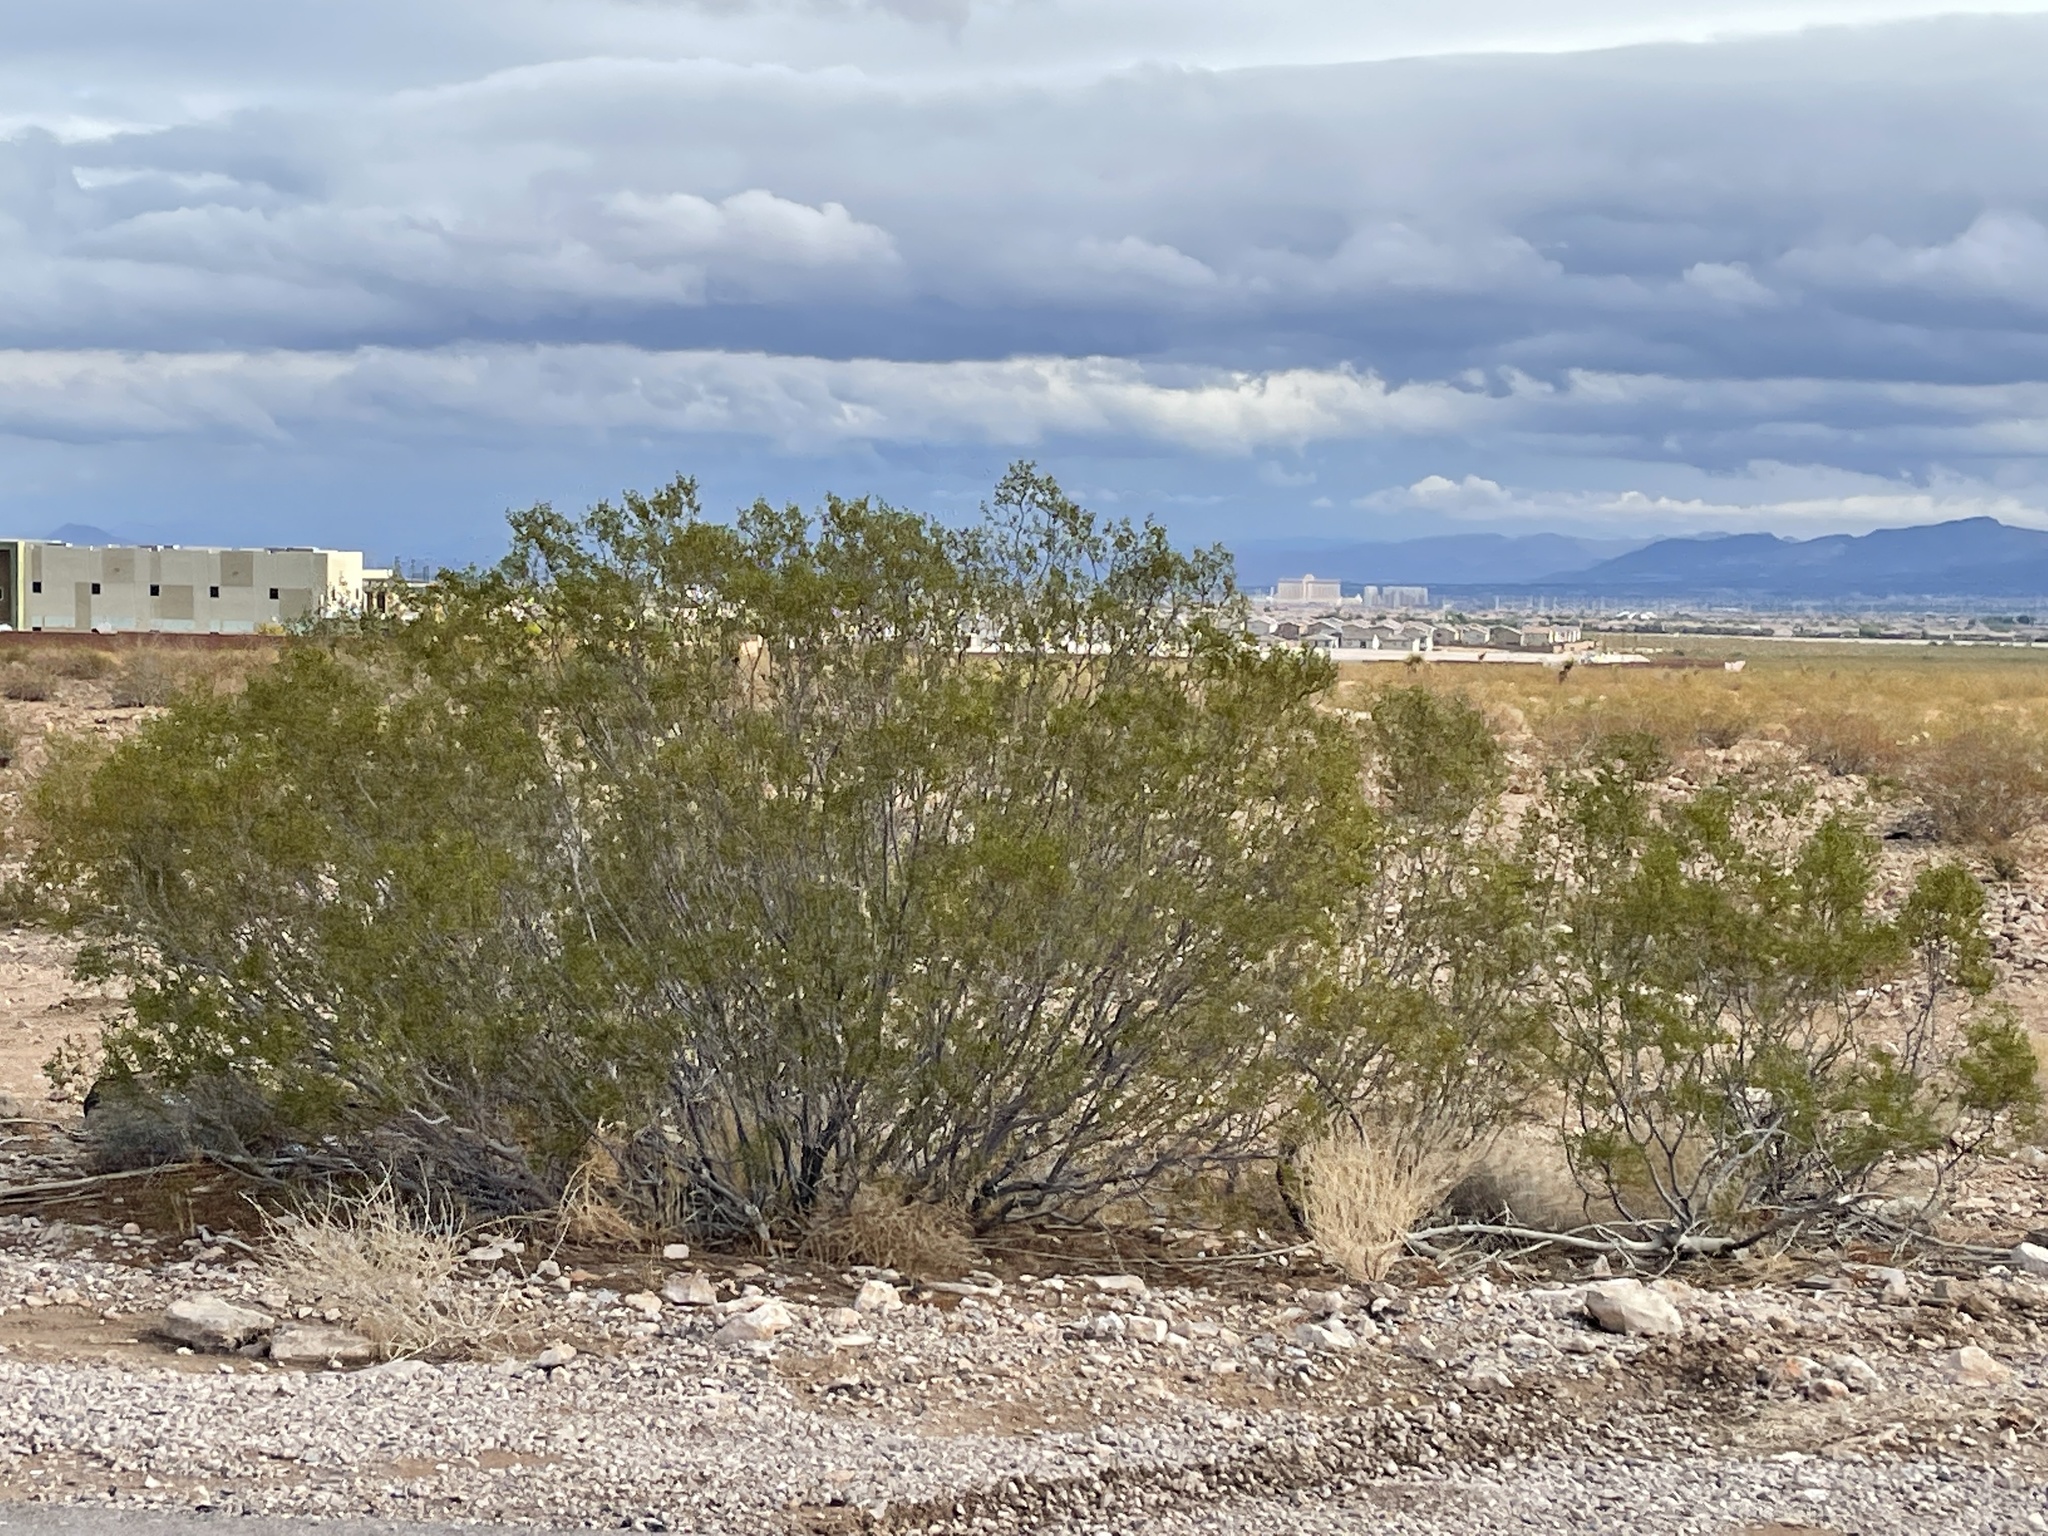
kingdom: Plantae
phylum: Tracheophyta
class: Magnoliopsida
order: Zygophyllales
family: Zygophyllaceae
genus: Larrea
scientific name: Larrea tridentata
